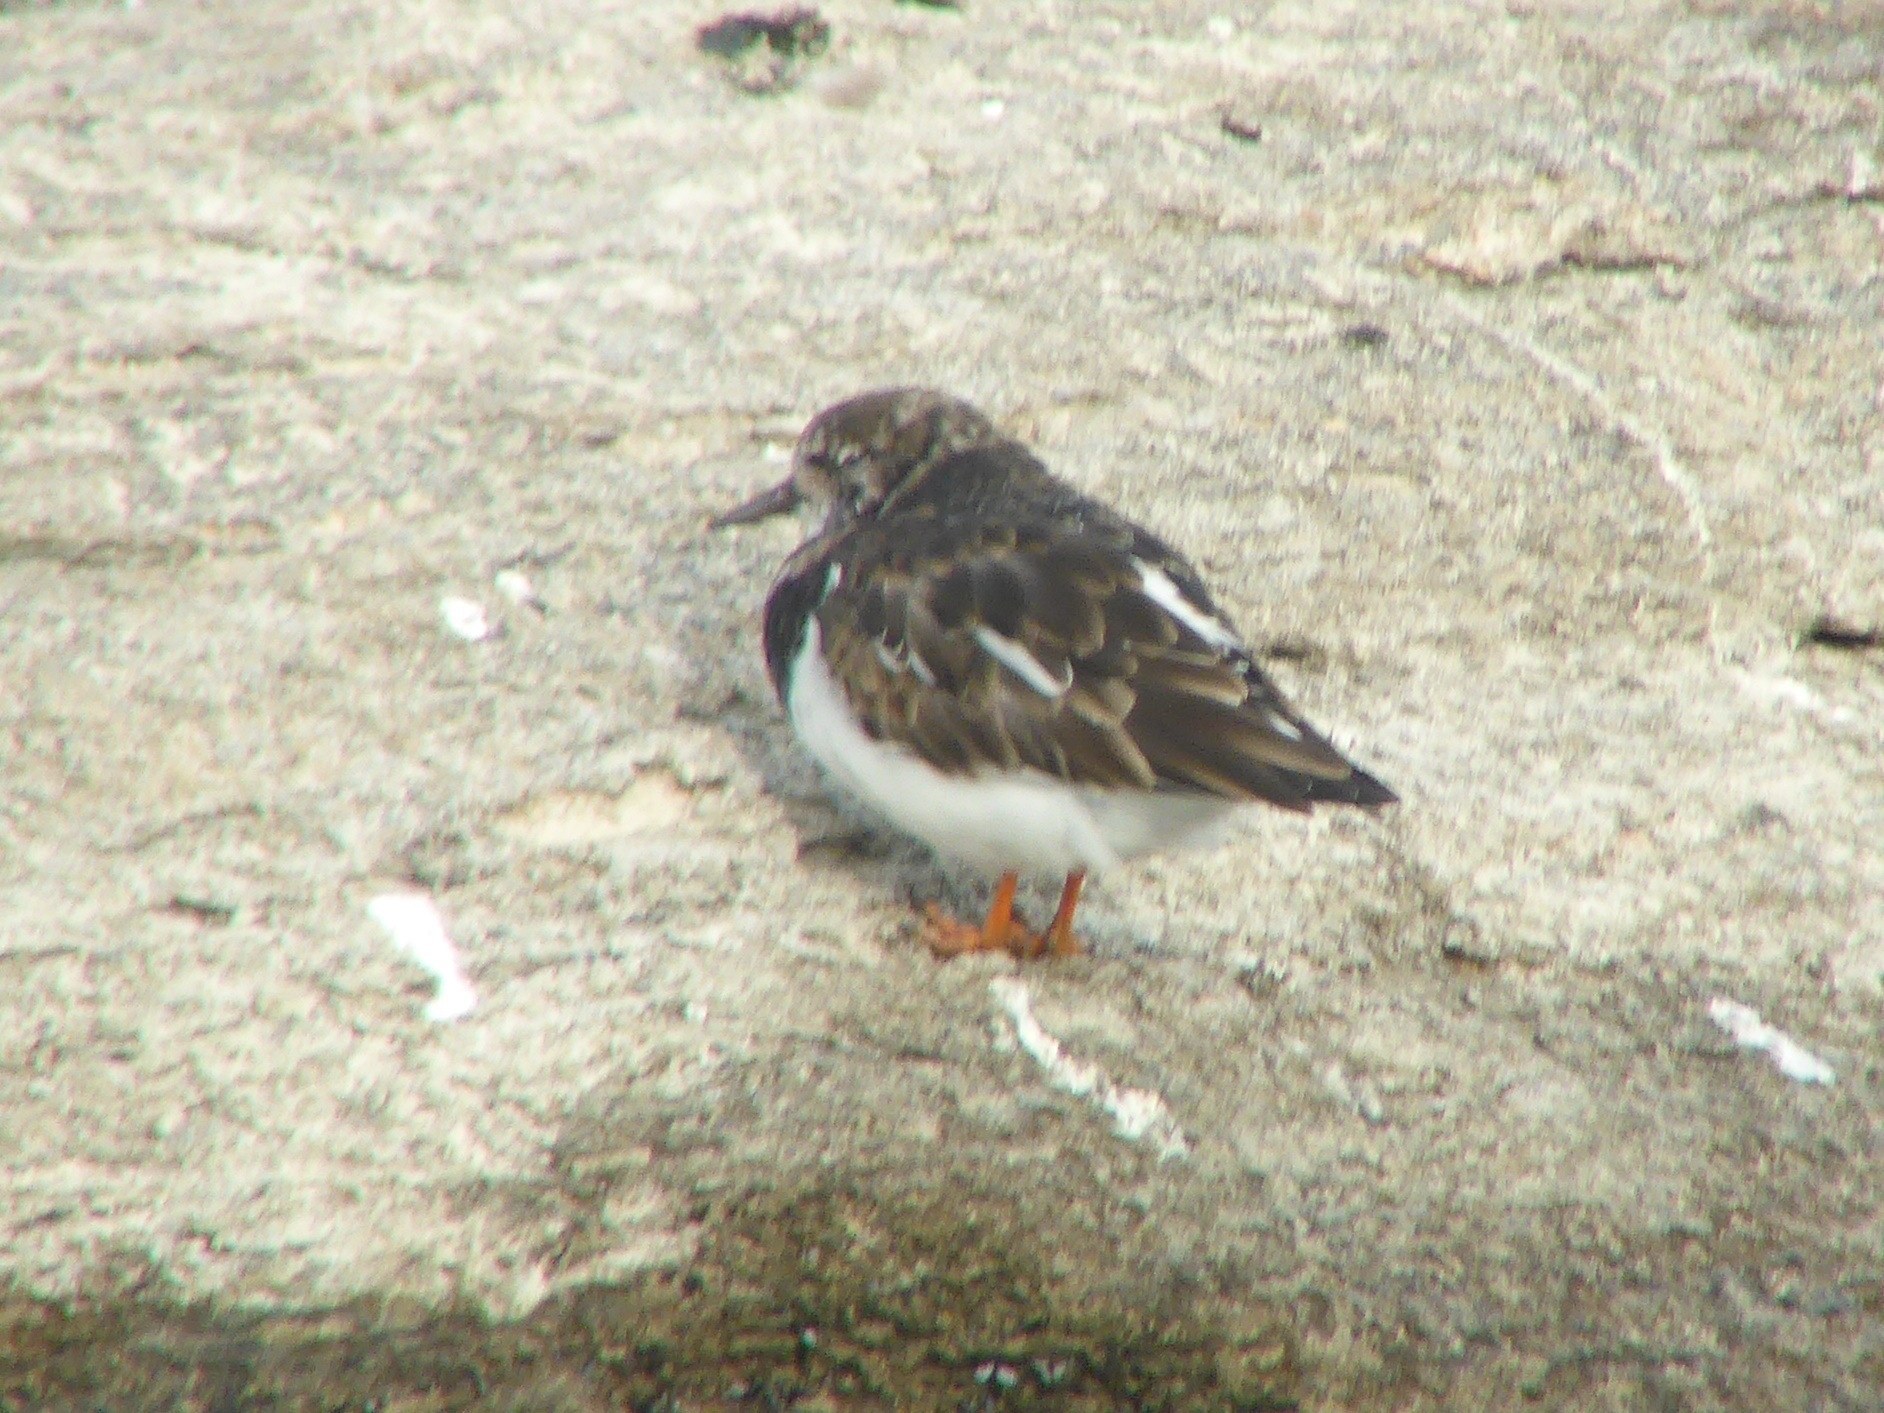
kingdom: Animalia
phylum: Chordata
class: Aves
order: Charadriiformes
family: Scolopacidae
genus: Arenaria
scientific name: Arenaria interpres
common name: Ruddy turnstone
